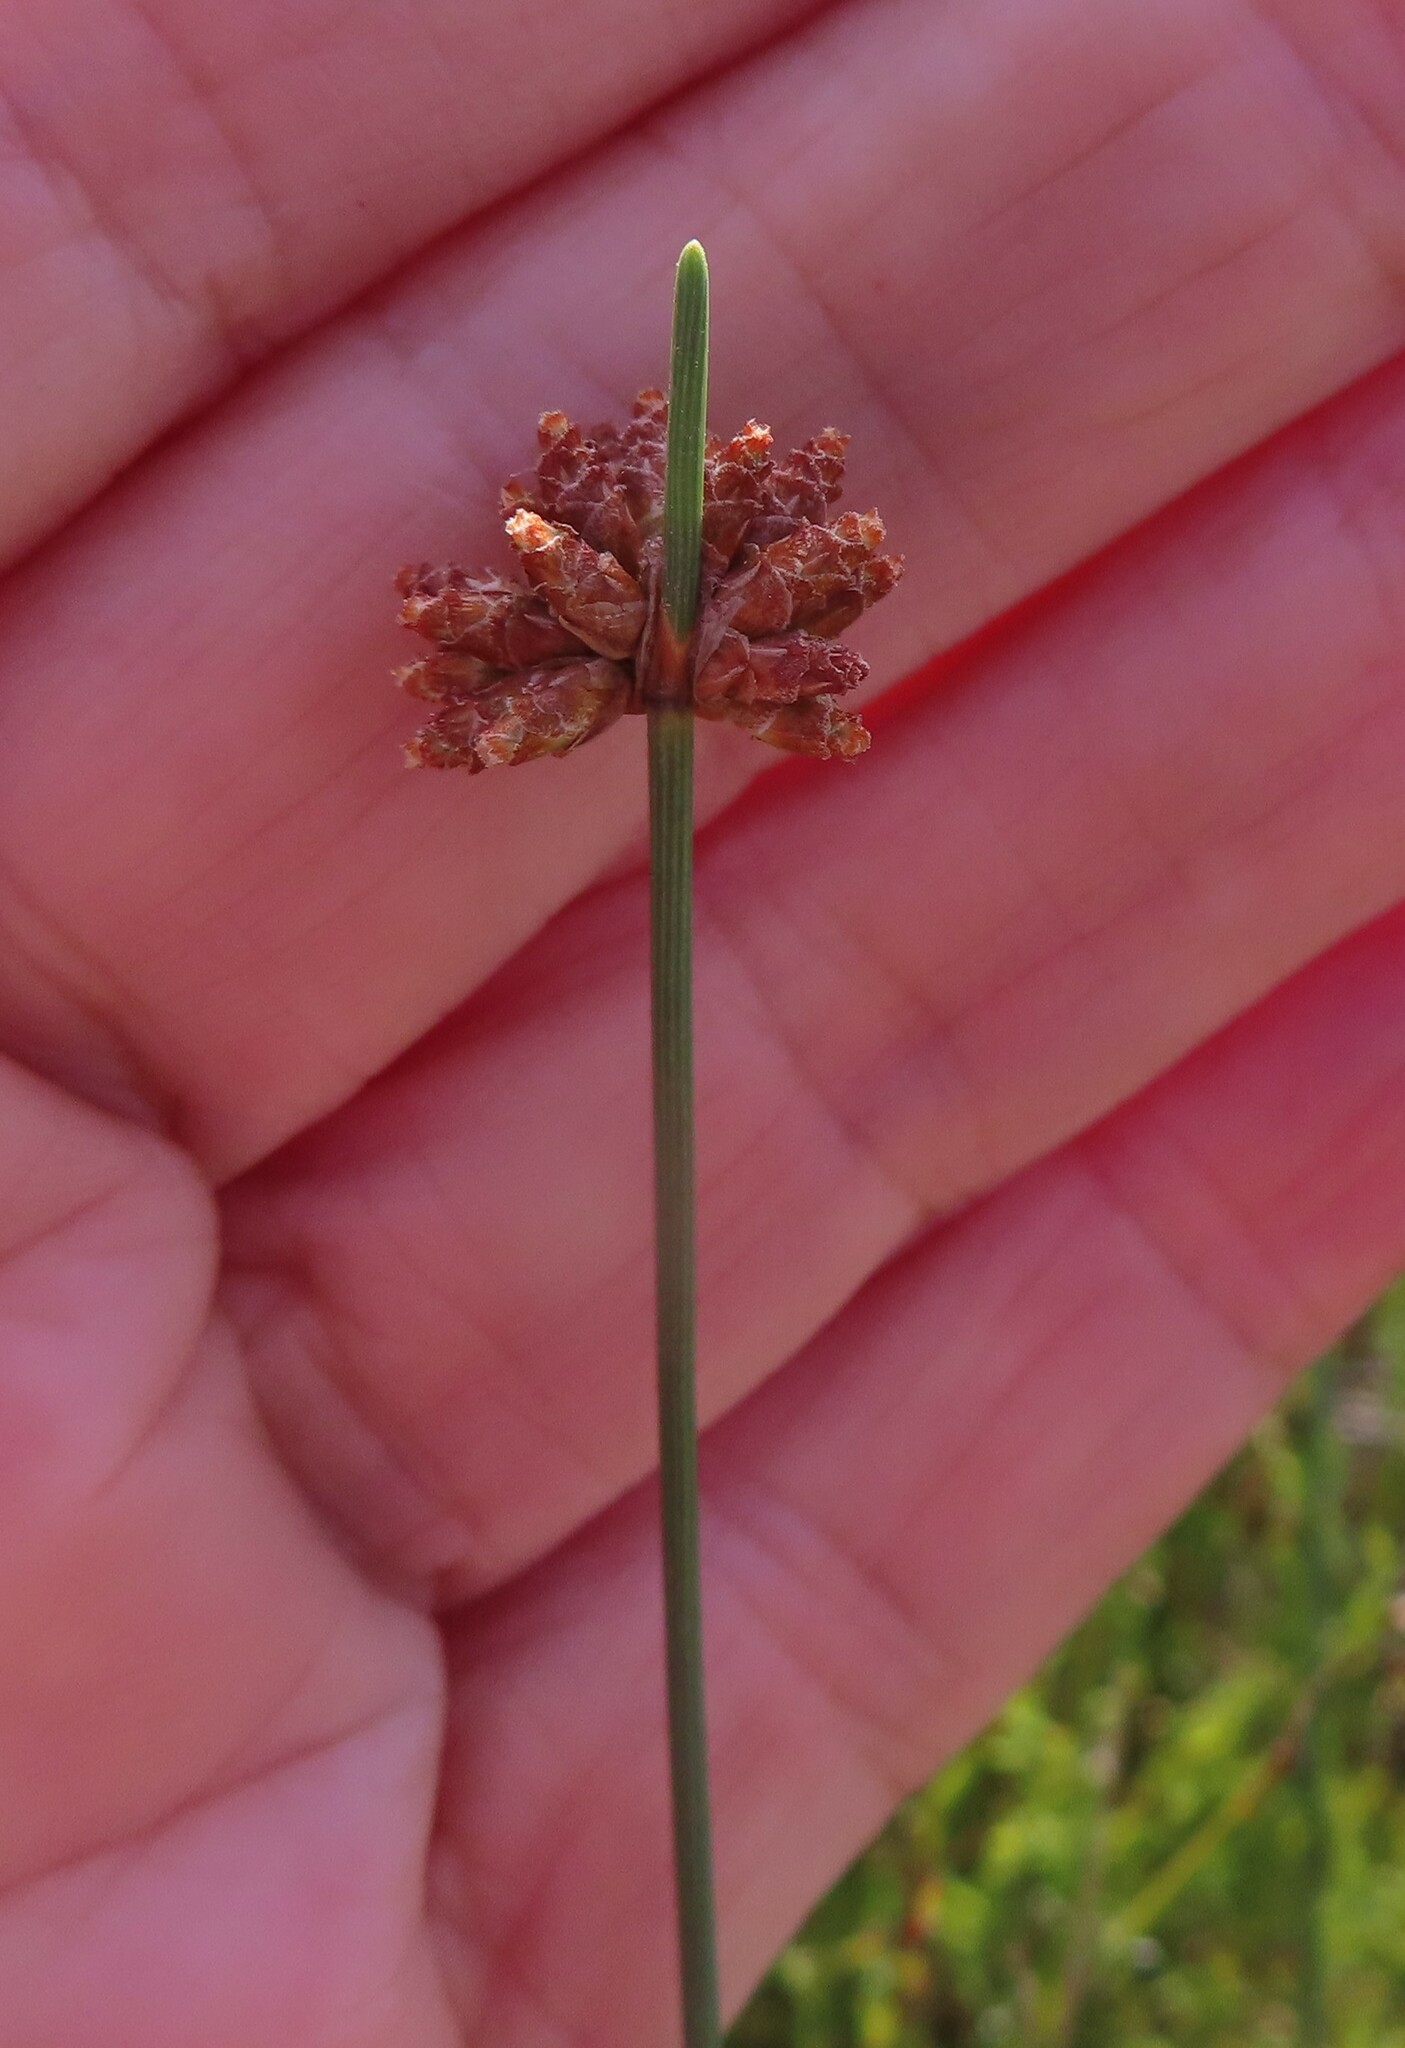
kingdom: Plantae
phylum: Tracheophyta
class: Liliopsida
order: Poales
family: Cyperaceae
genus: Ficinia
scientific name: Ficinia ecklonea
